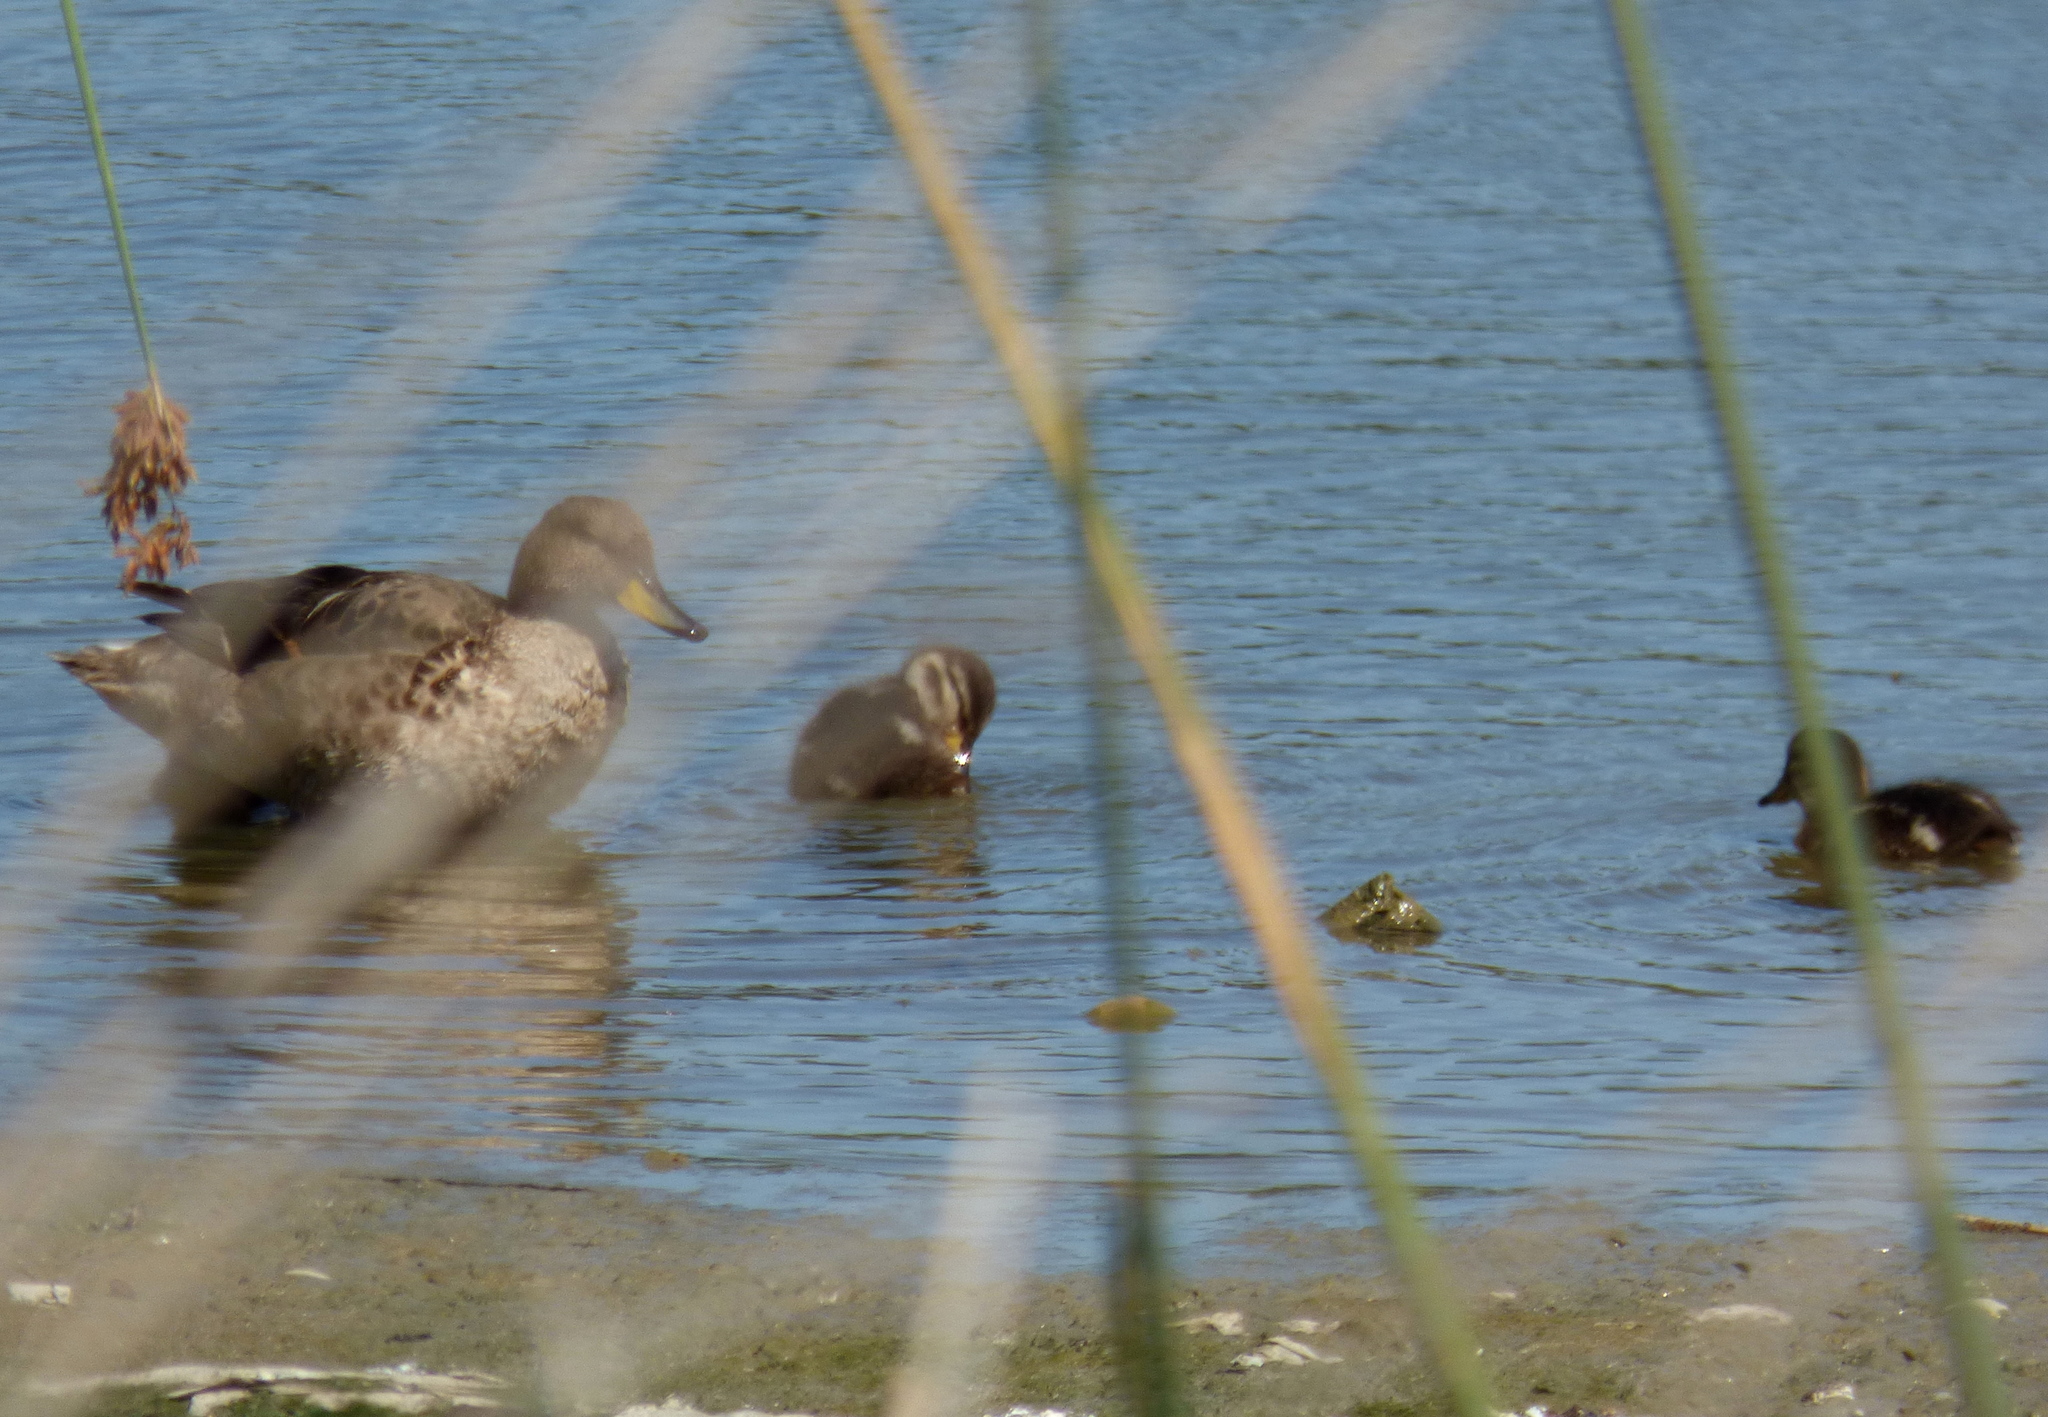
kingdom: Animalia
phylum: Chordata
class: Aves
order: Anseriformes
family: Anatidae
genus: Anas
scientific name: Anas flavirostris
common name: Yellow-billed teal
